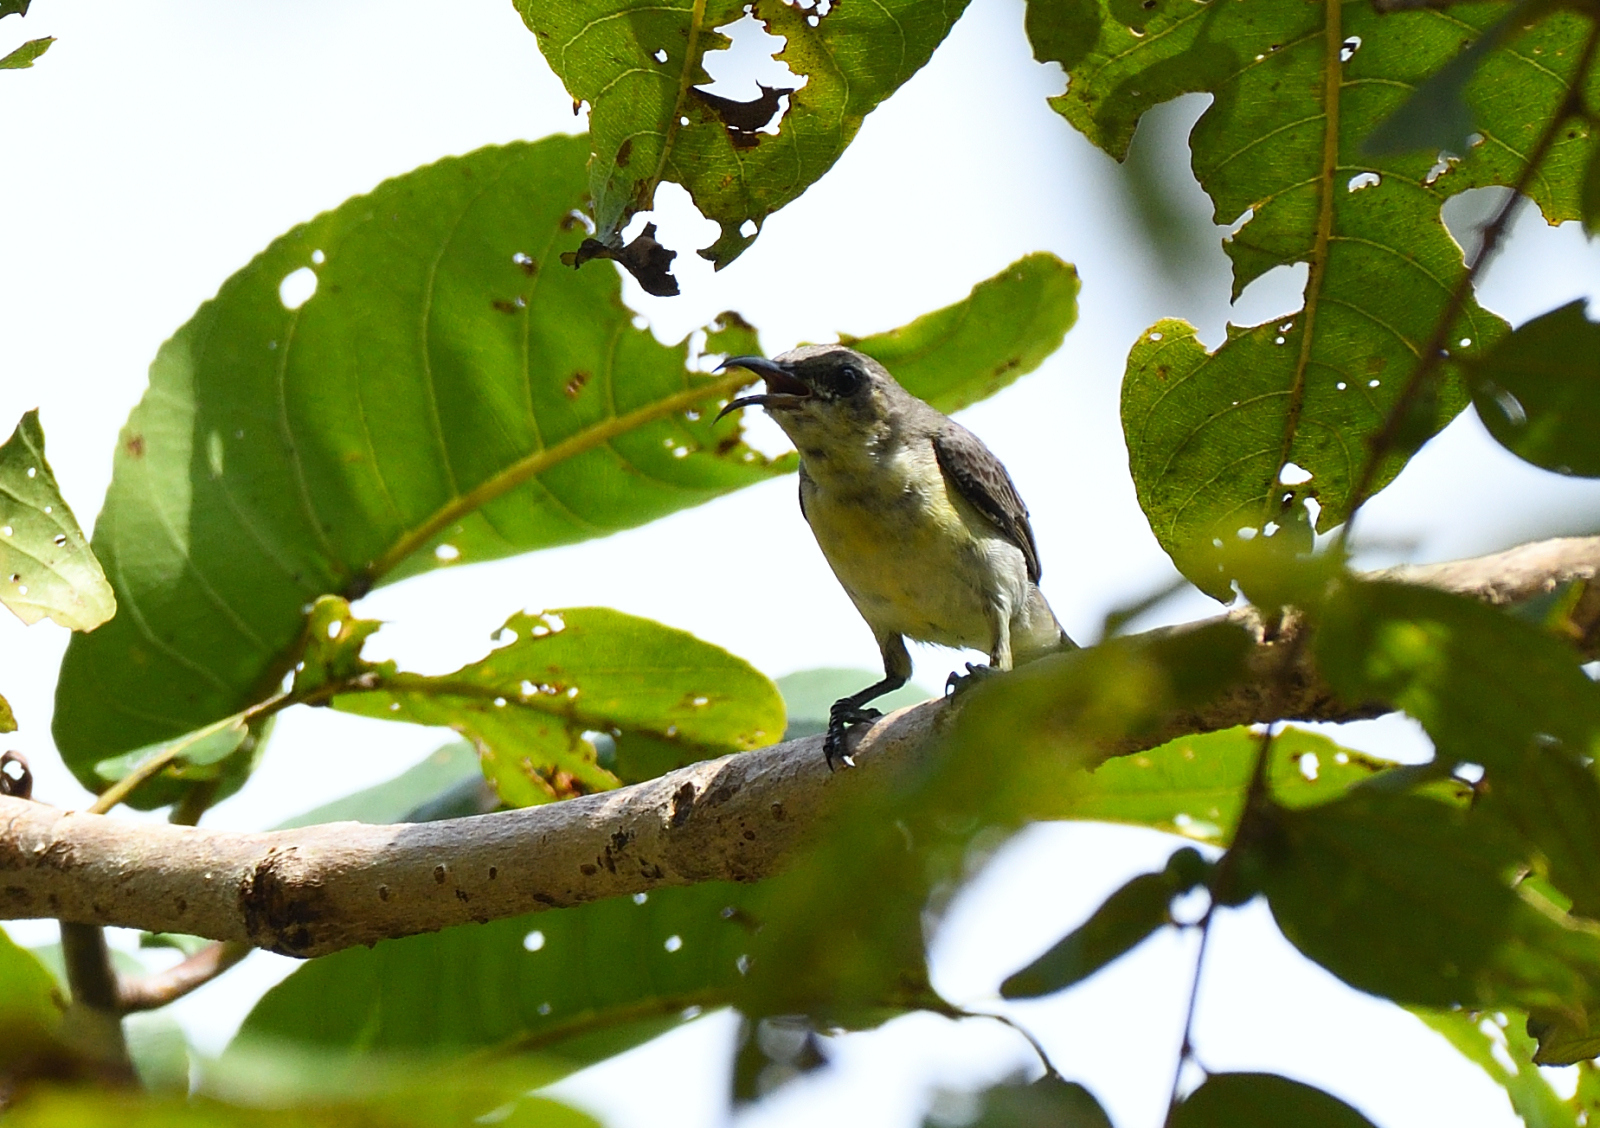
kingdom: Animalia
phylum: Chordata
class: Aves
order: Passeriformes
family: Nectariniidae
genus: Cinnyris
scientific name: Cinnyris asiaticus
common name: Purple sunbird
